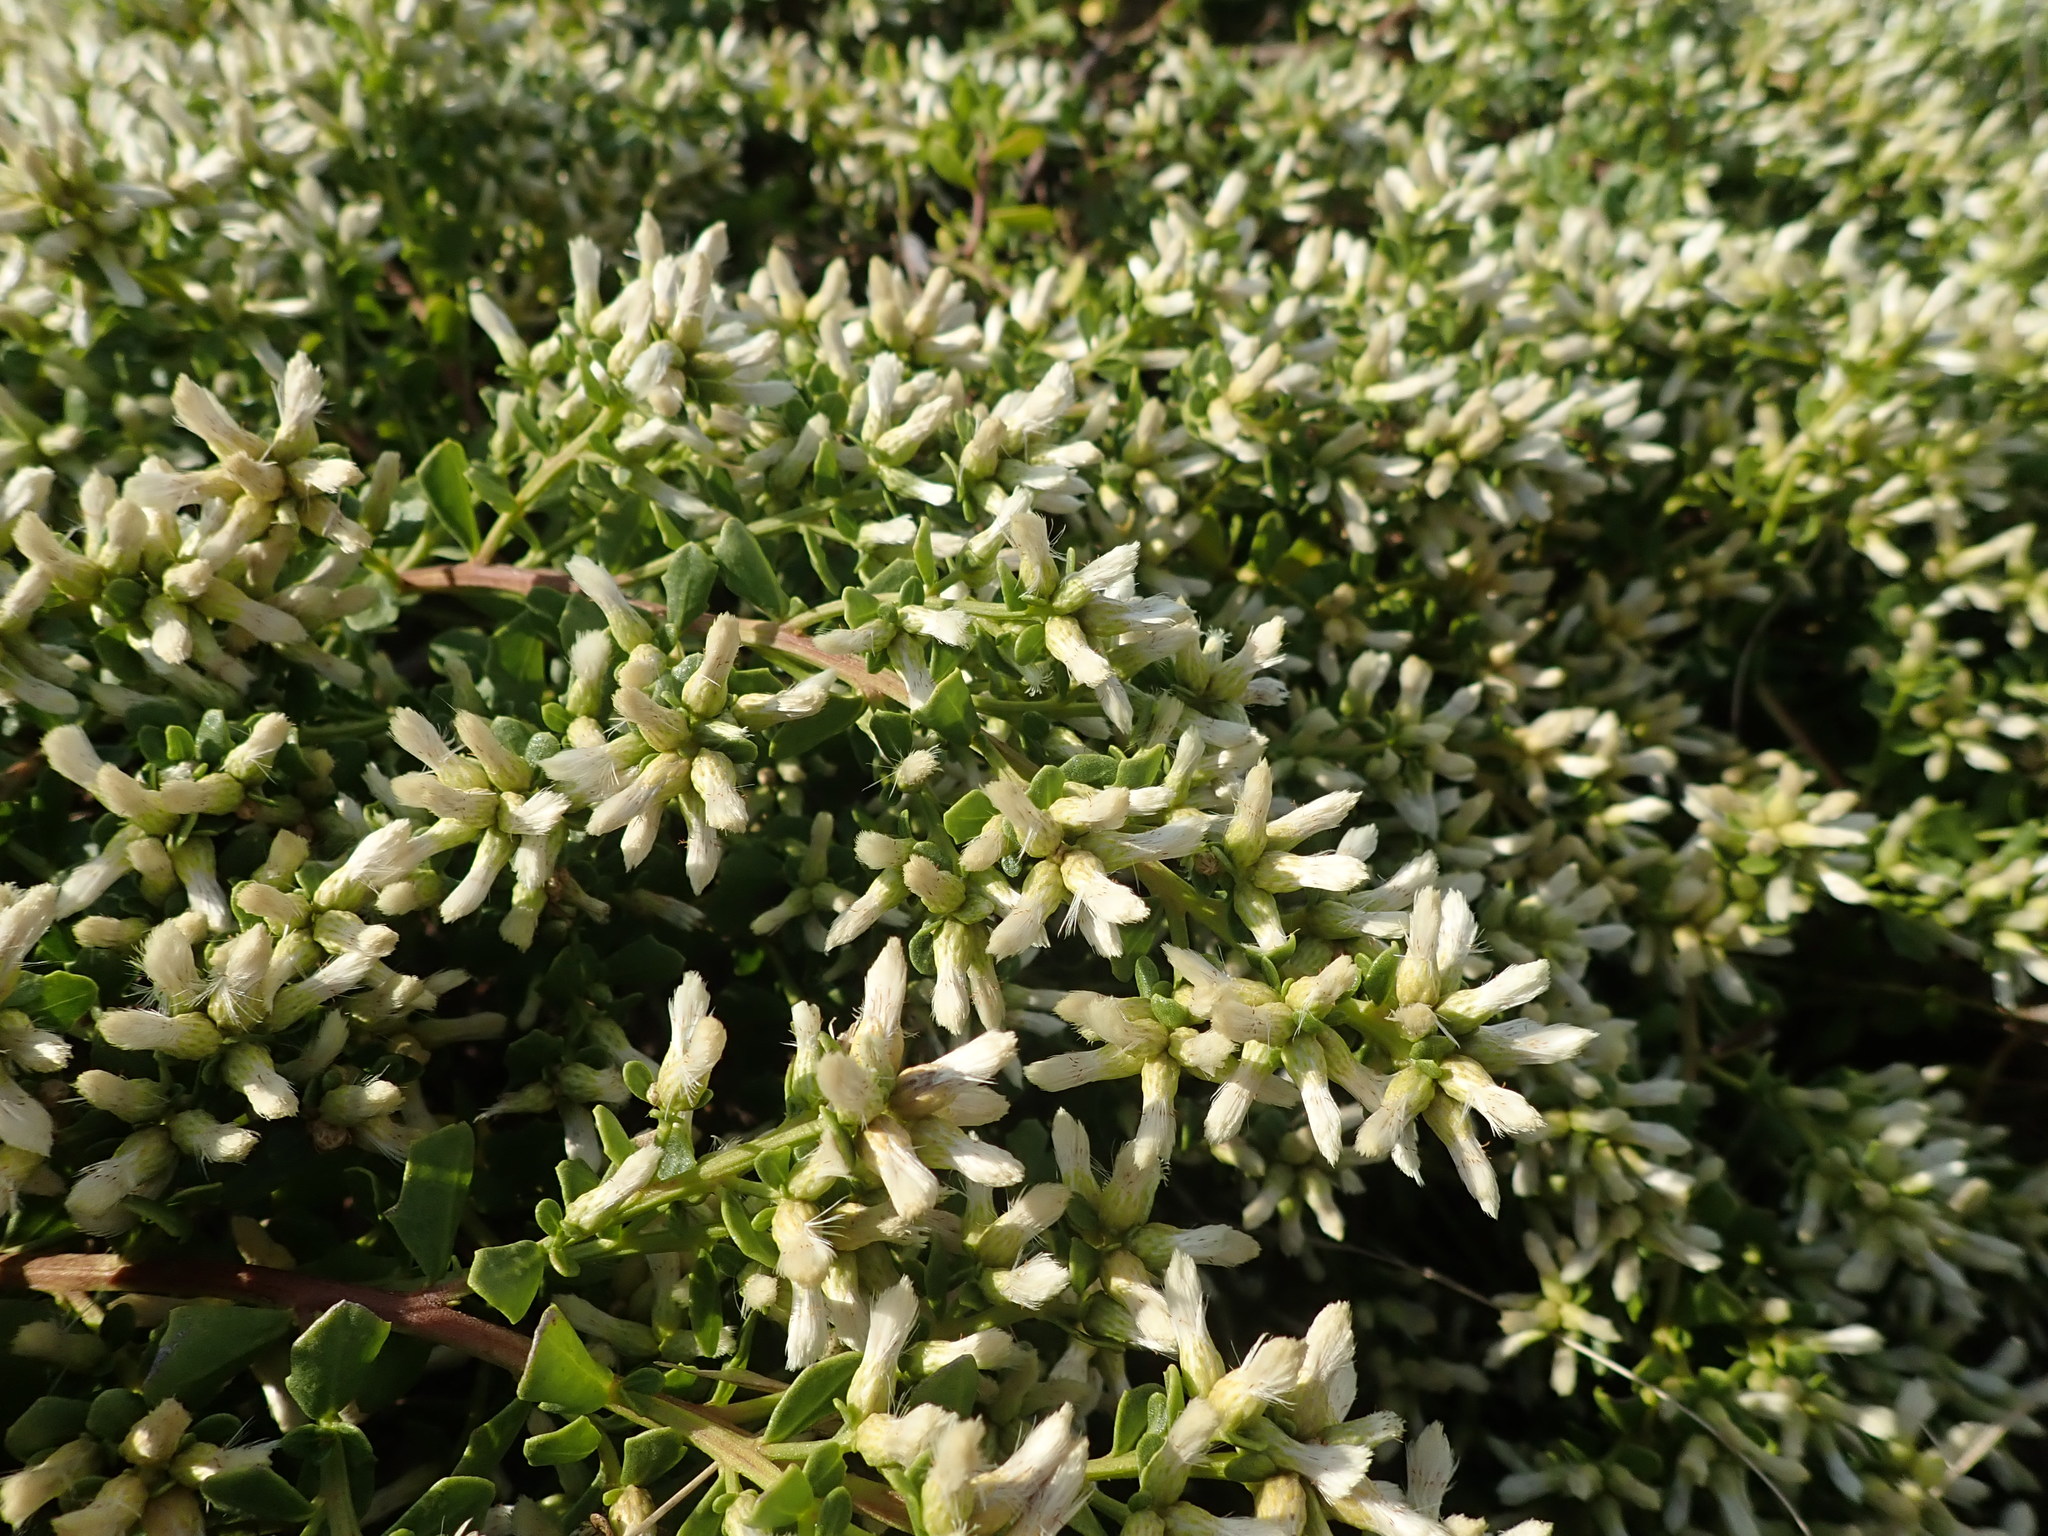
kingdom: Plantae
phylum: Tracheophyta
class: Magnoliopsida
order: Asterales
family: Asteraceae
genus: Baccharis
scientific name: Baccharis pilularis
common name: Coyotebrush
